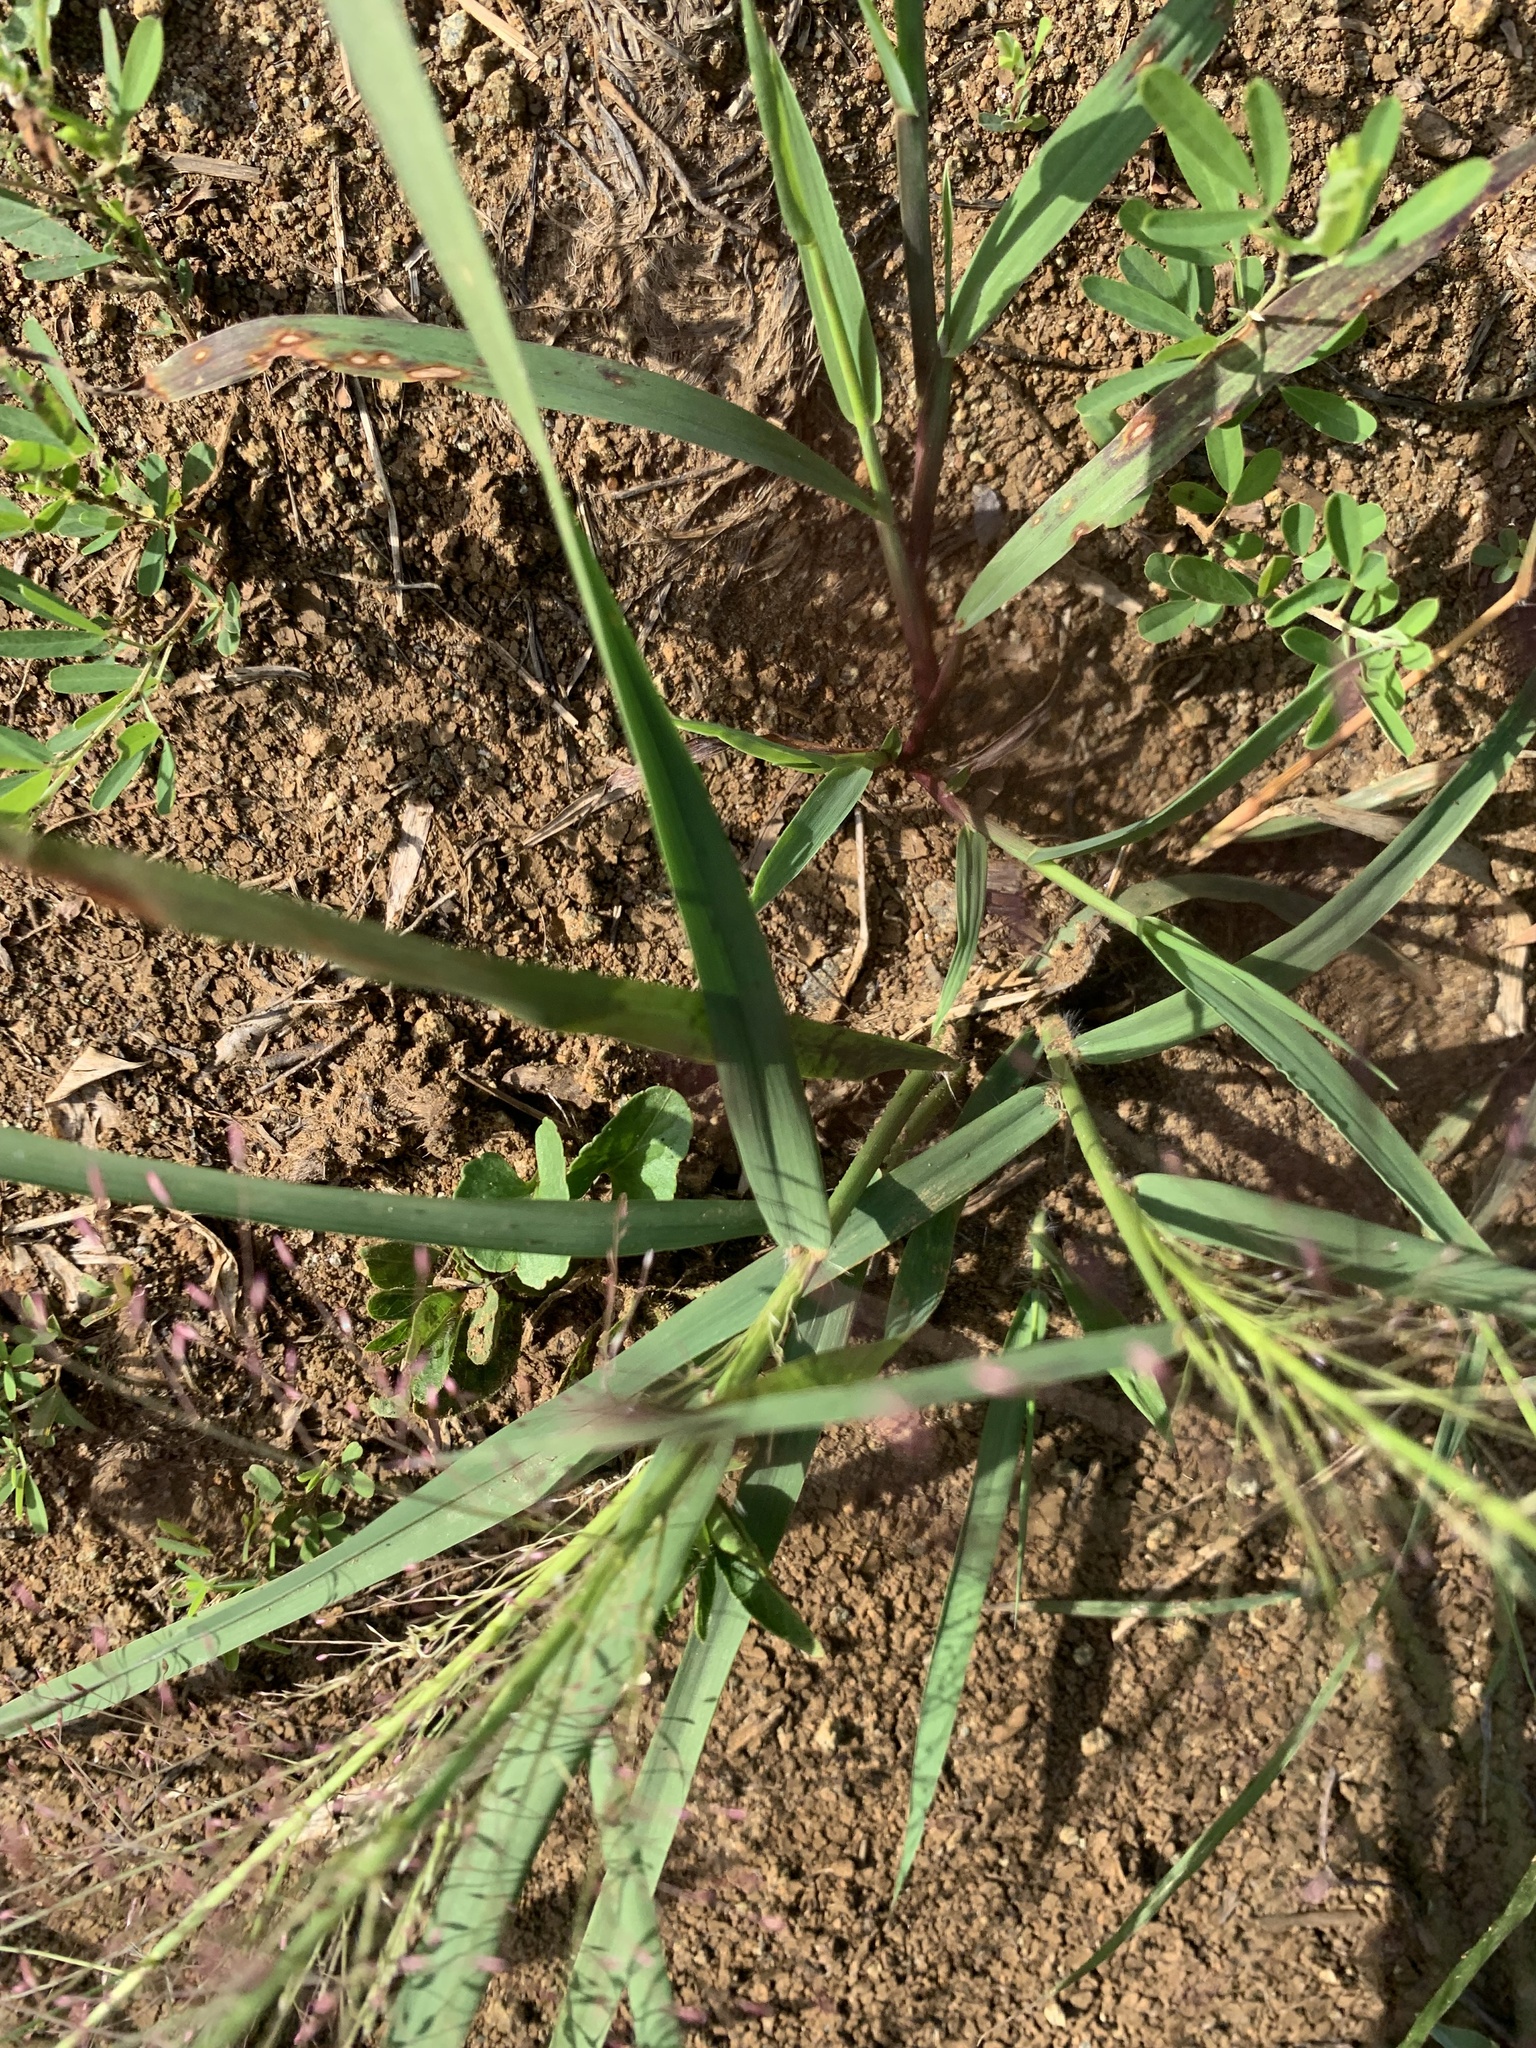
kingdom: Plantae
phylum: Tracheophyta
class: Liliopsida
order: Poales
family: Poaceae
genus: Eragrostis
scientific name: Eragrostis spectabilis
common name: Petticoat-climber
